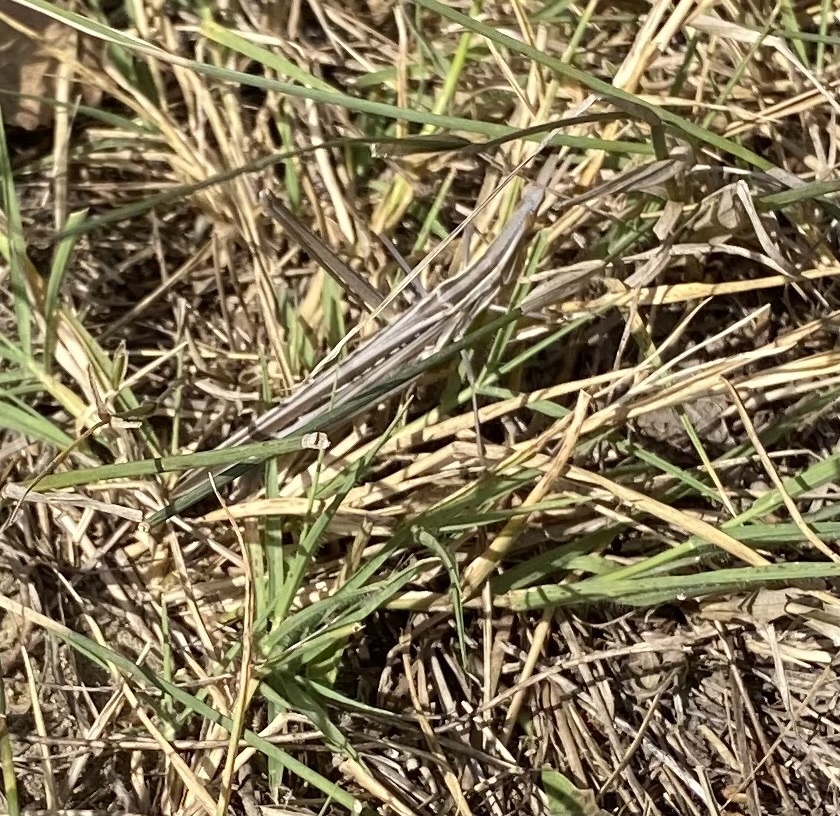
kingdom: Animalia
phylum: Arthropoda
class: Insecta
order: Orthoptera
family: Acrididae
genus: Acrida
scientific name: Acrida
